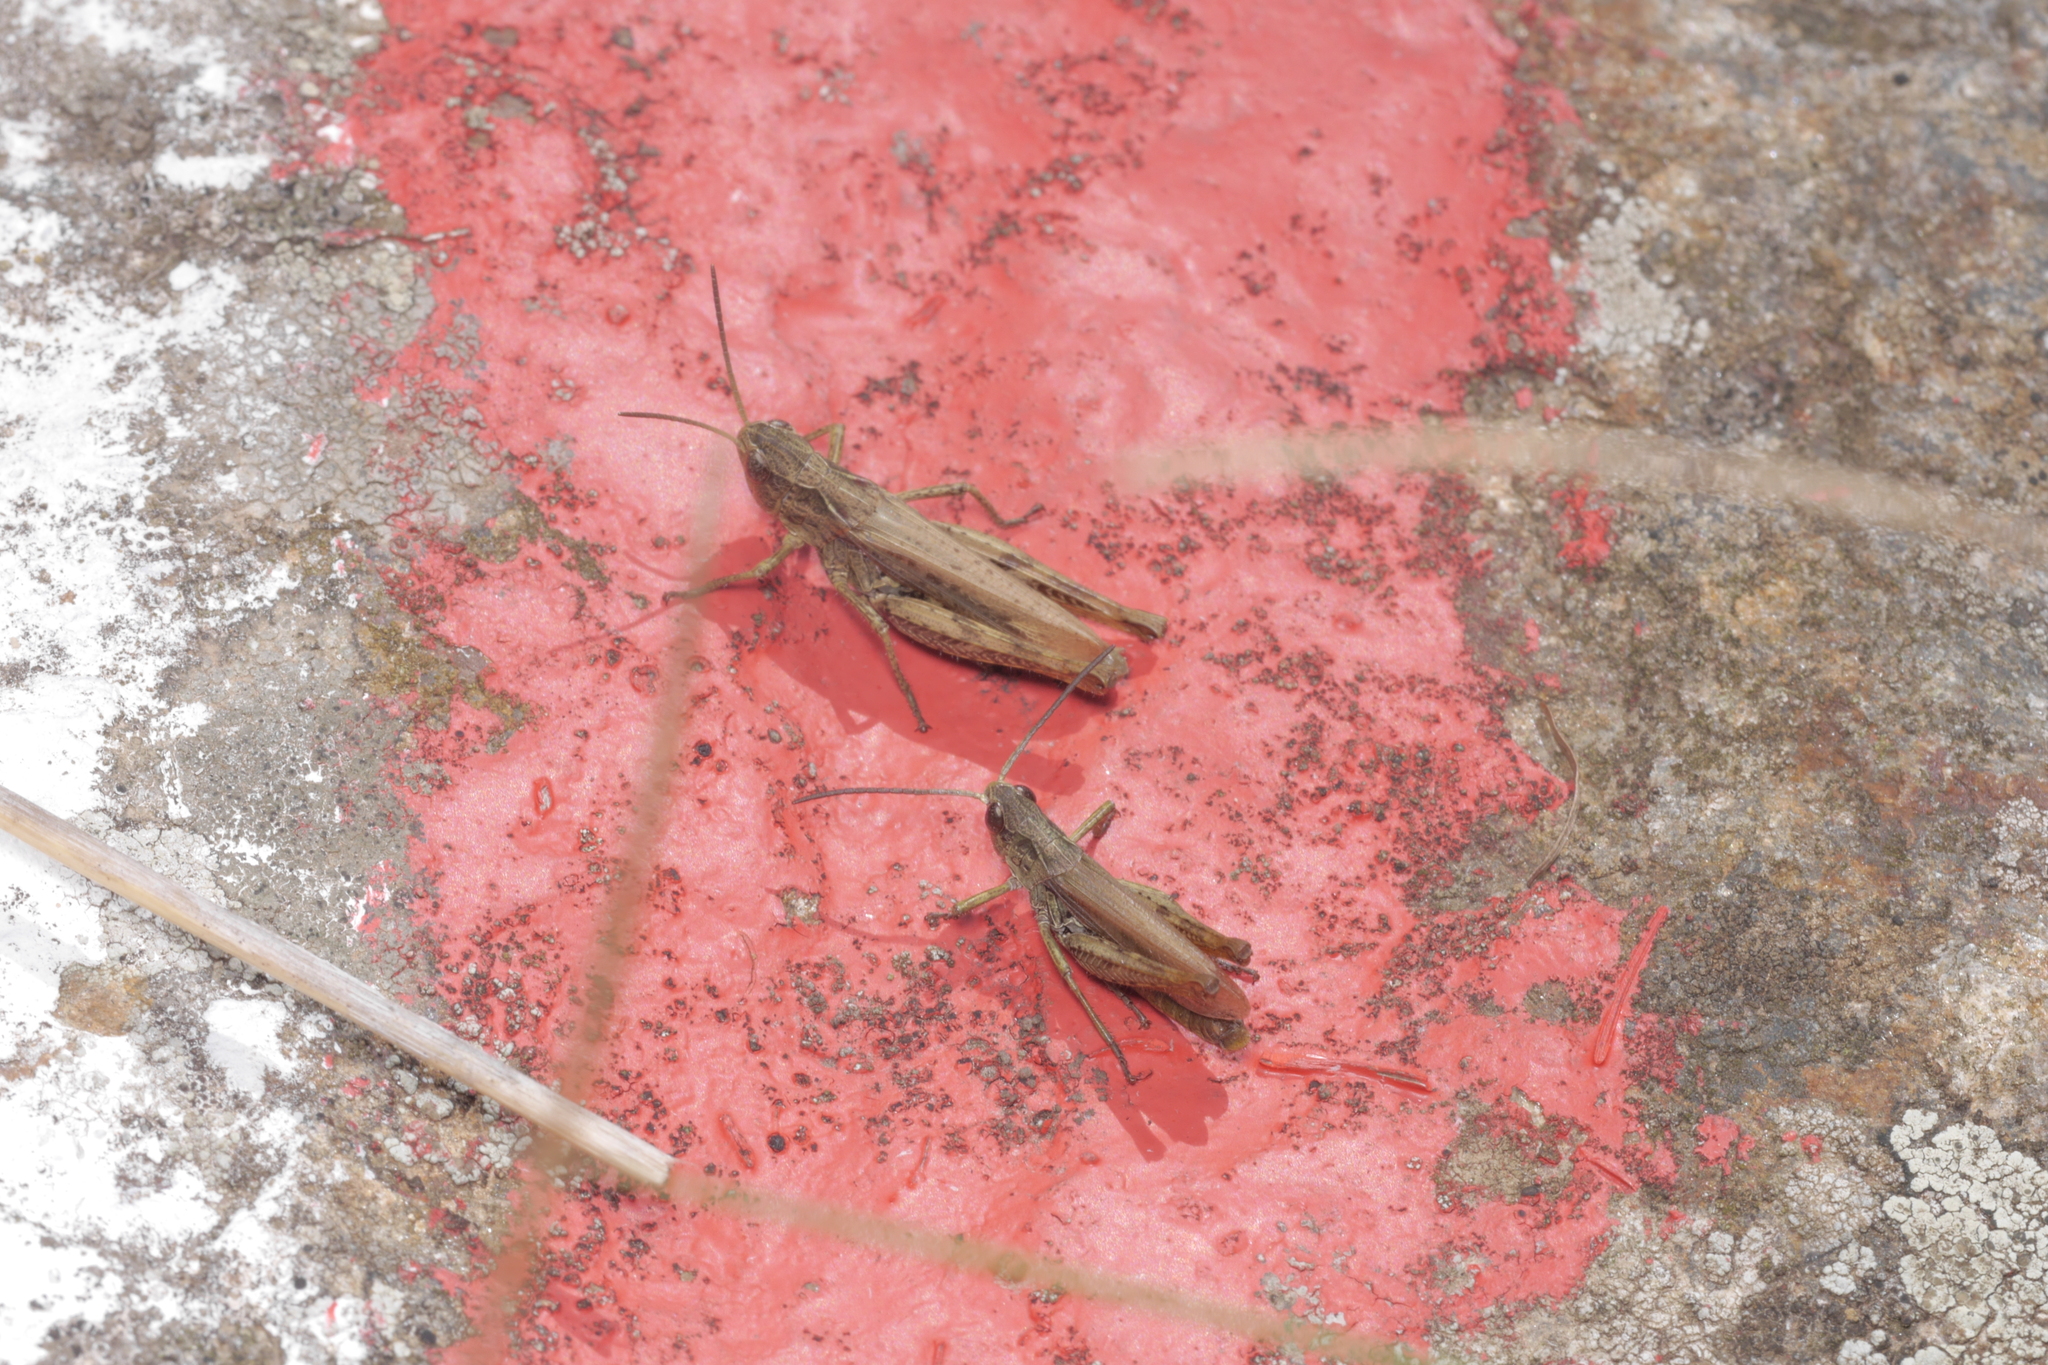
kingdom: Animalia
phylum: Arthropoda
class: Insecta
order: Orthoptera
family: Acrididae
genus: Chorthippus
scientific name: Chorthippus apricarius
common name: Upland field grasshopper
